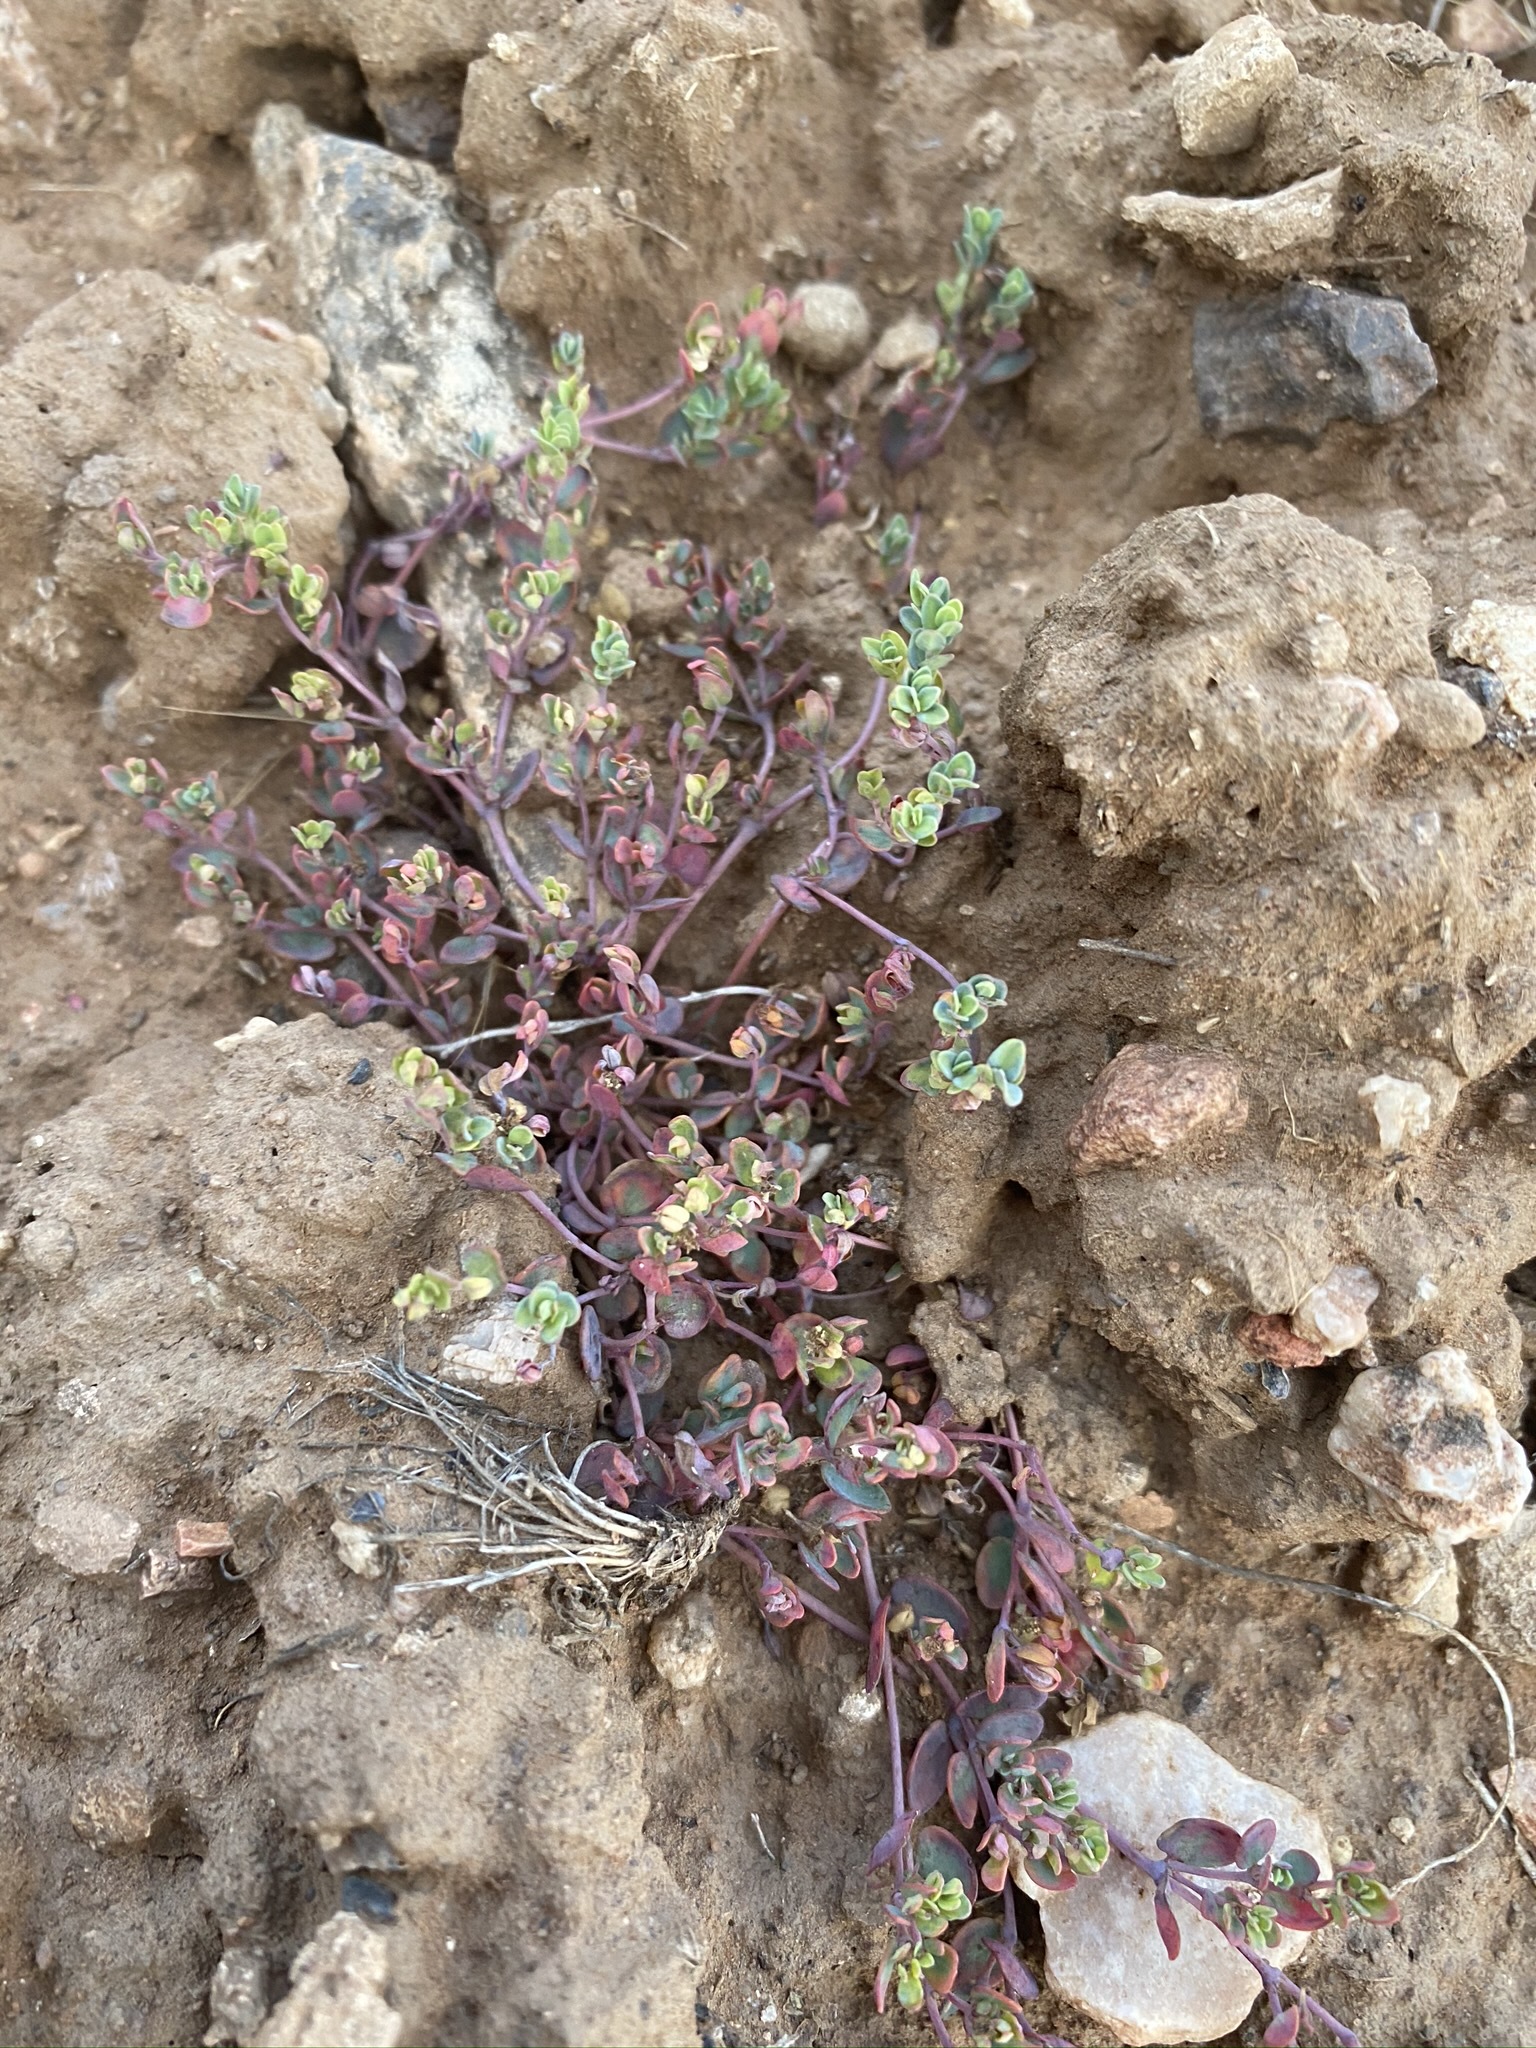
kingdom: Plantae
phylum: Tracheophyta
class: Magnoliopsida
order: Malpighiales
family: Euphorbiaceae
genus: Euphorbia
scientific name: Euphorbia fendleri
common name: Fendler's euphorbia
